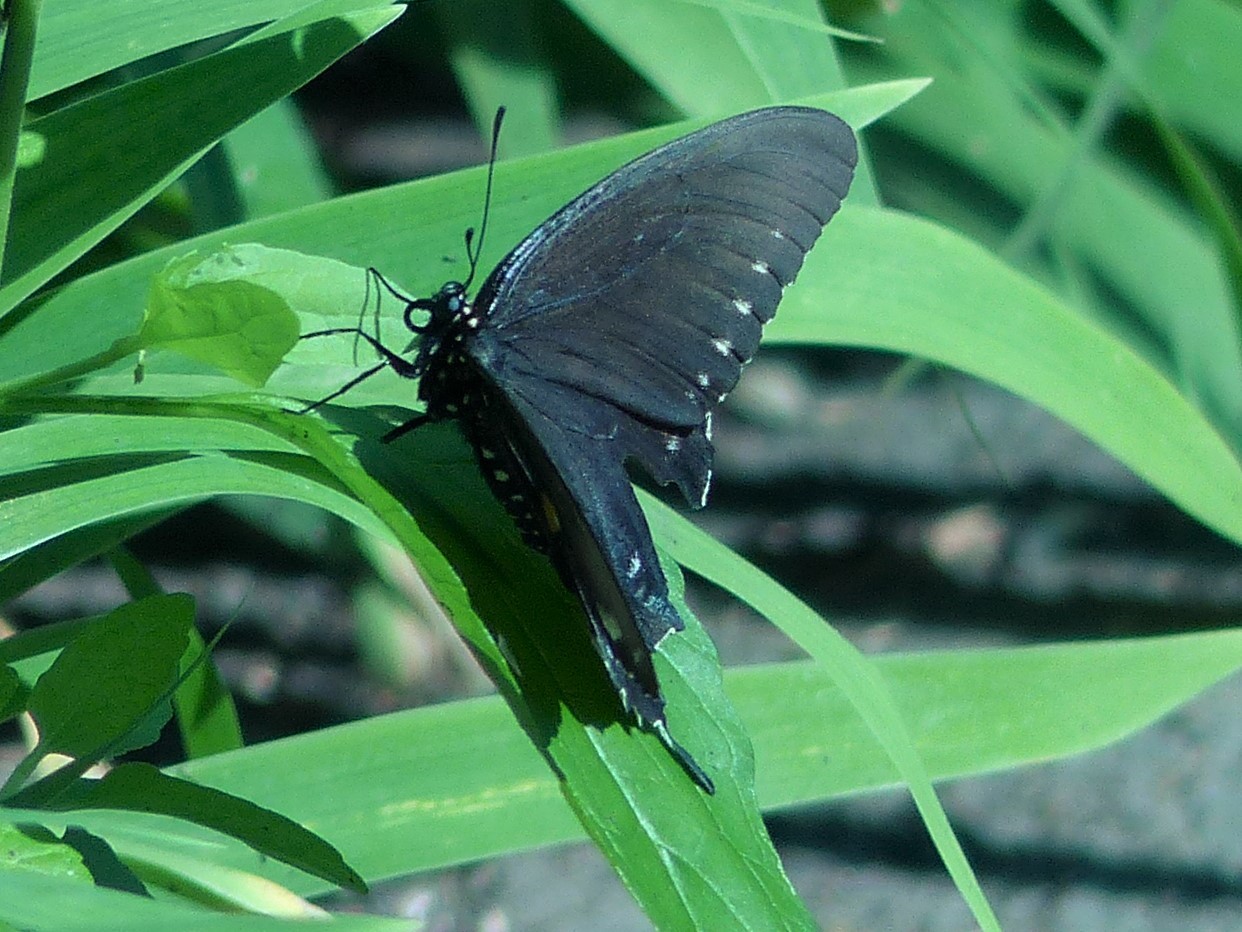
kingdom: Animalia
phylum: Arthropoda
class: Insecta
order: Lepidoptera
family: Papilionidae
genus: Battus
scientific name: Battus philenor
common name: Pipevine swallowtail
